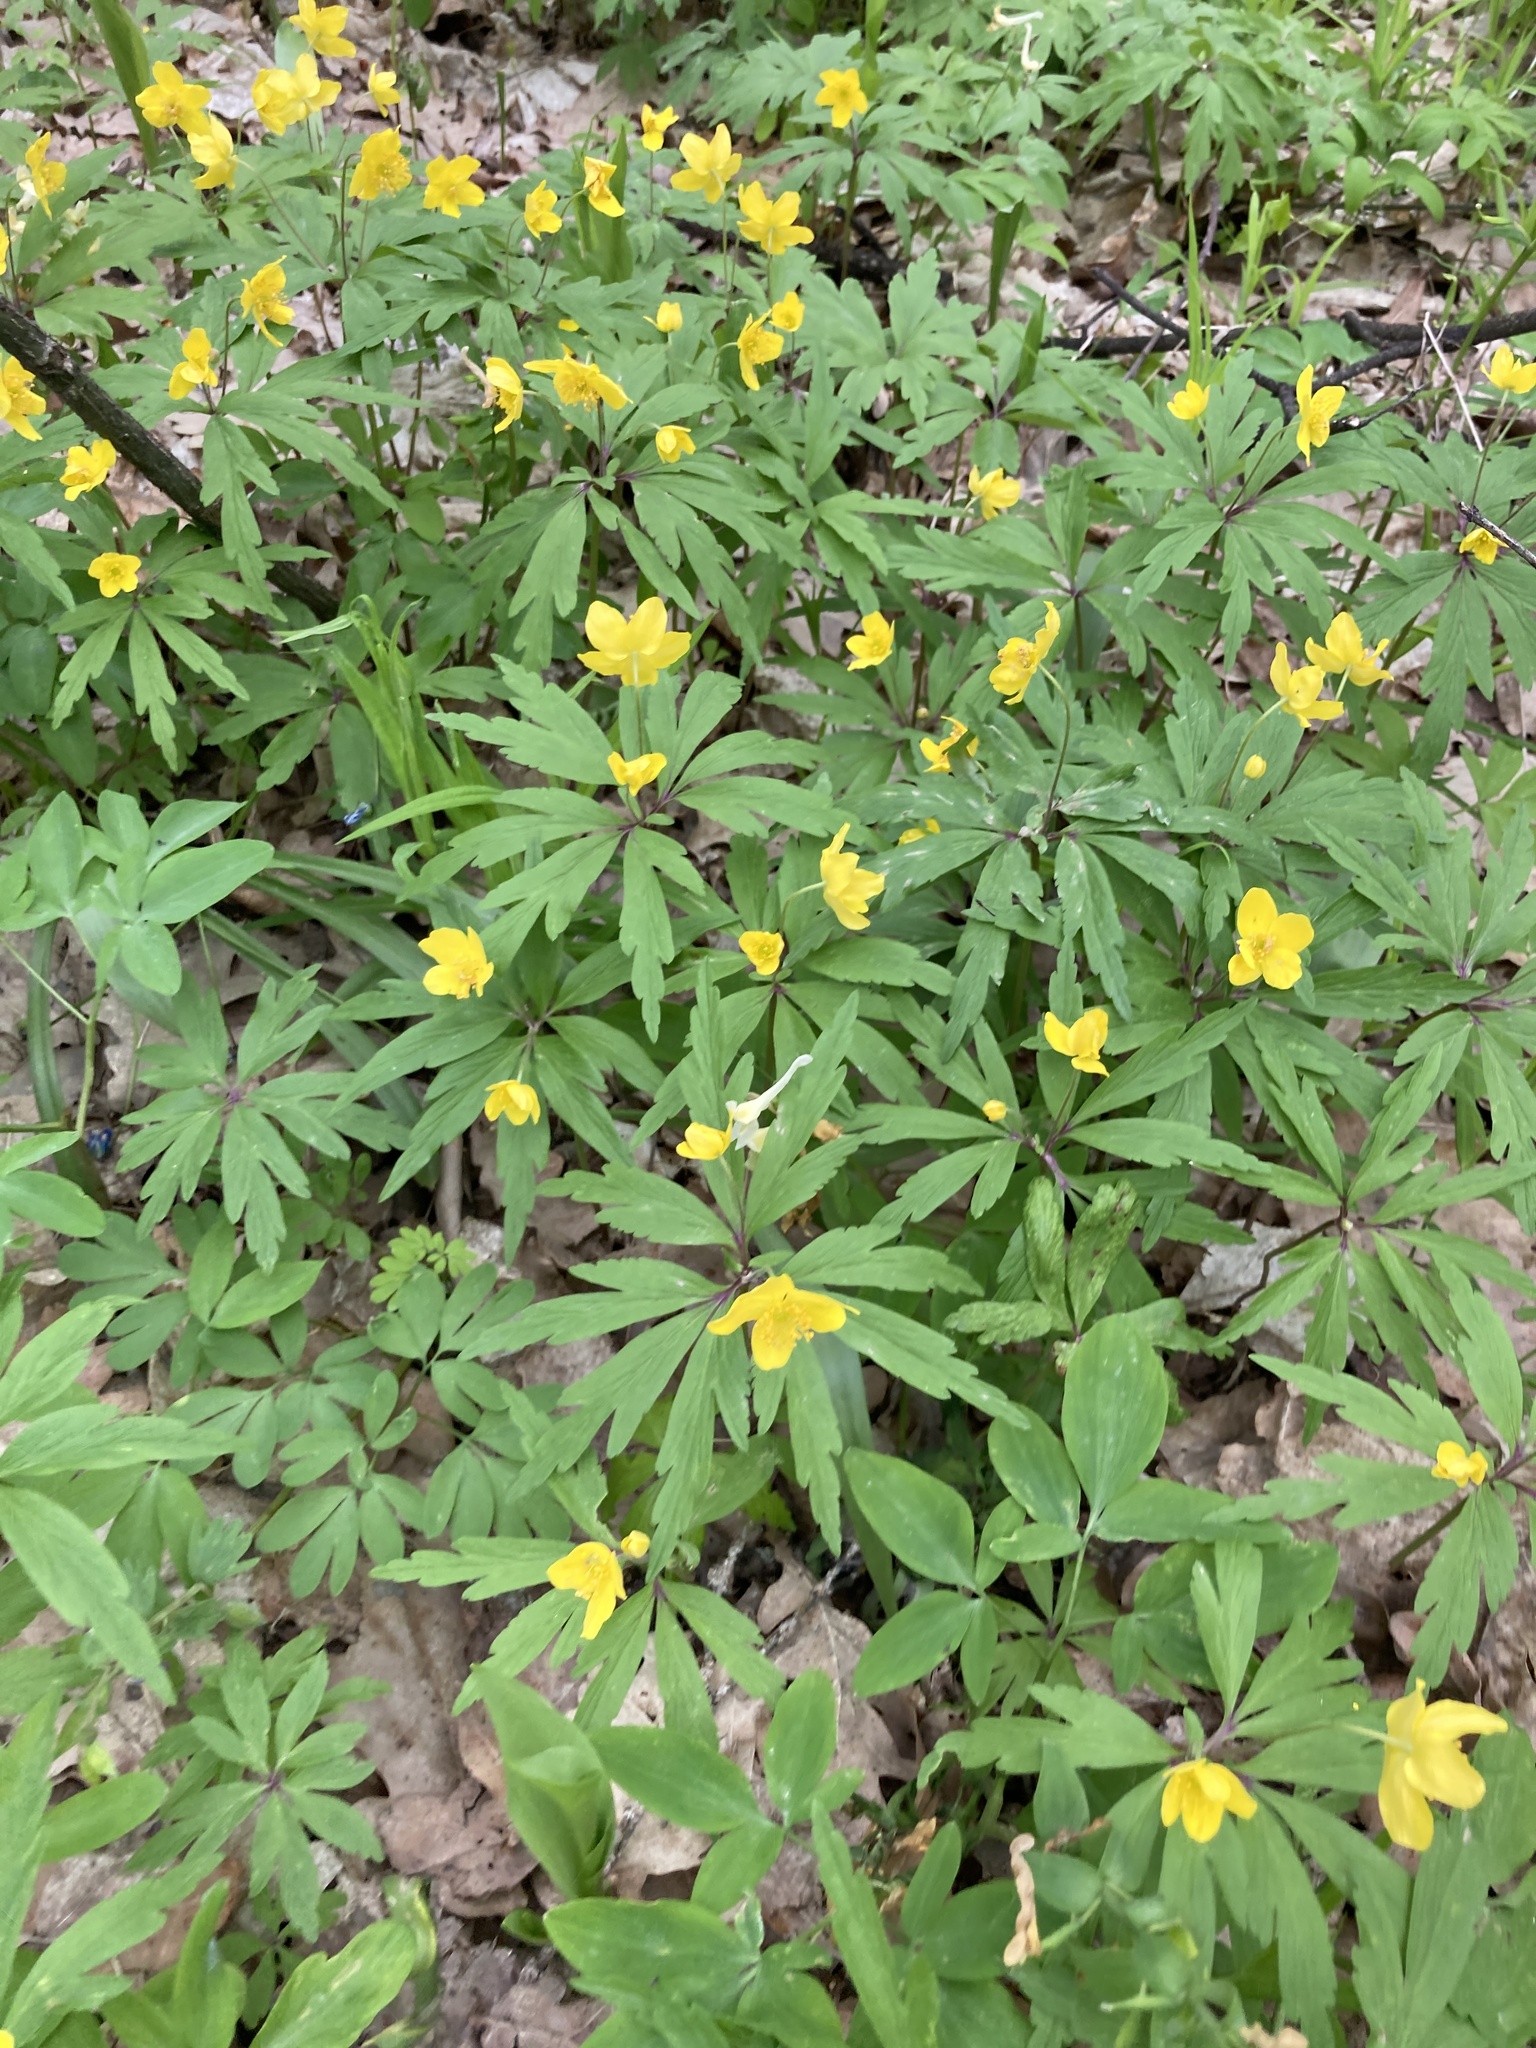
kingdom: Plantae
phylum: Tracheophyta
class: Magnoliopsida
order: Ranunculales
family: Ranunculaceae
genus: Anemone
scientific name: Anemone ranunculoides
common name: Yellow anemone
